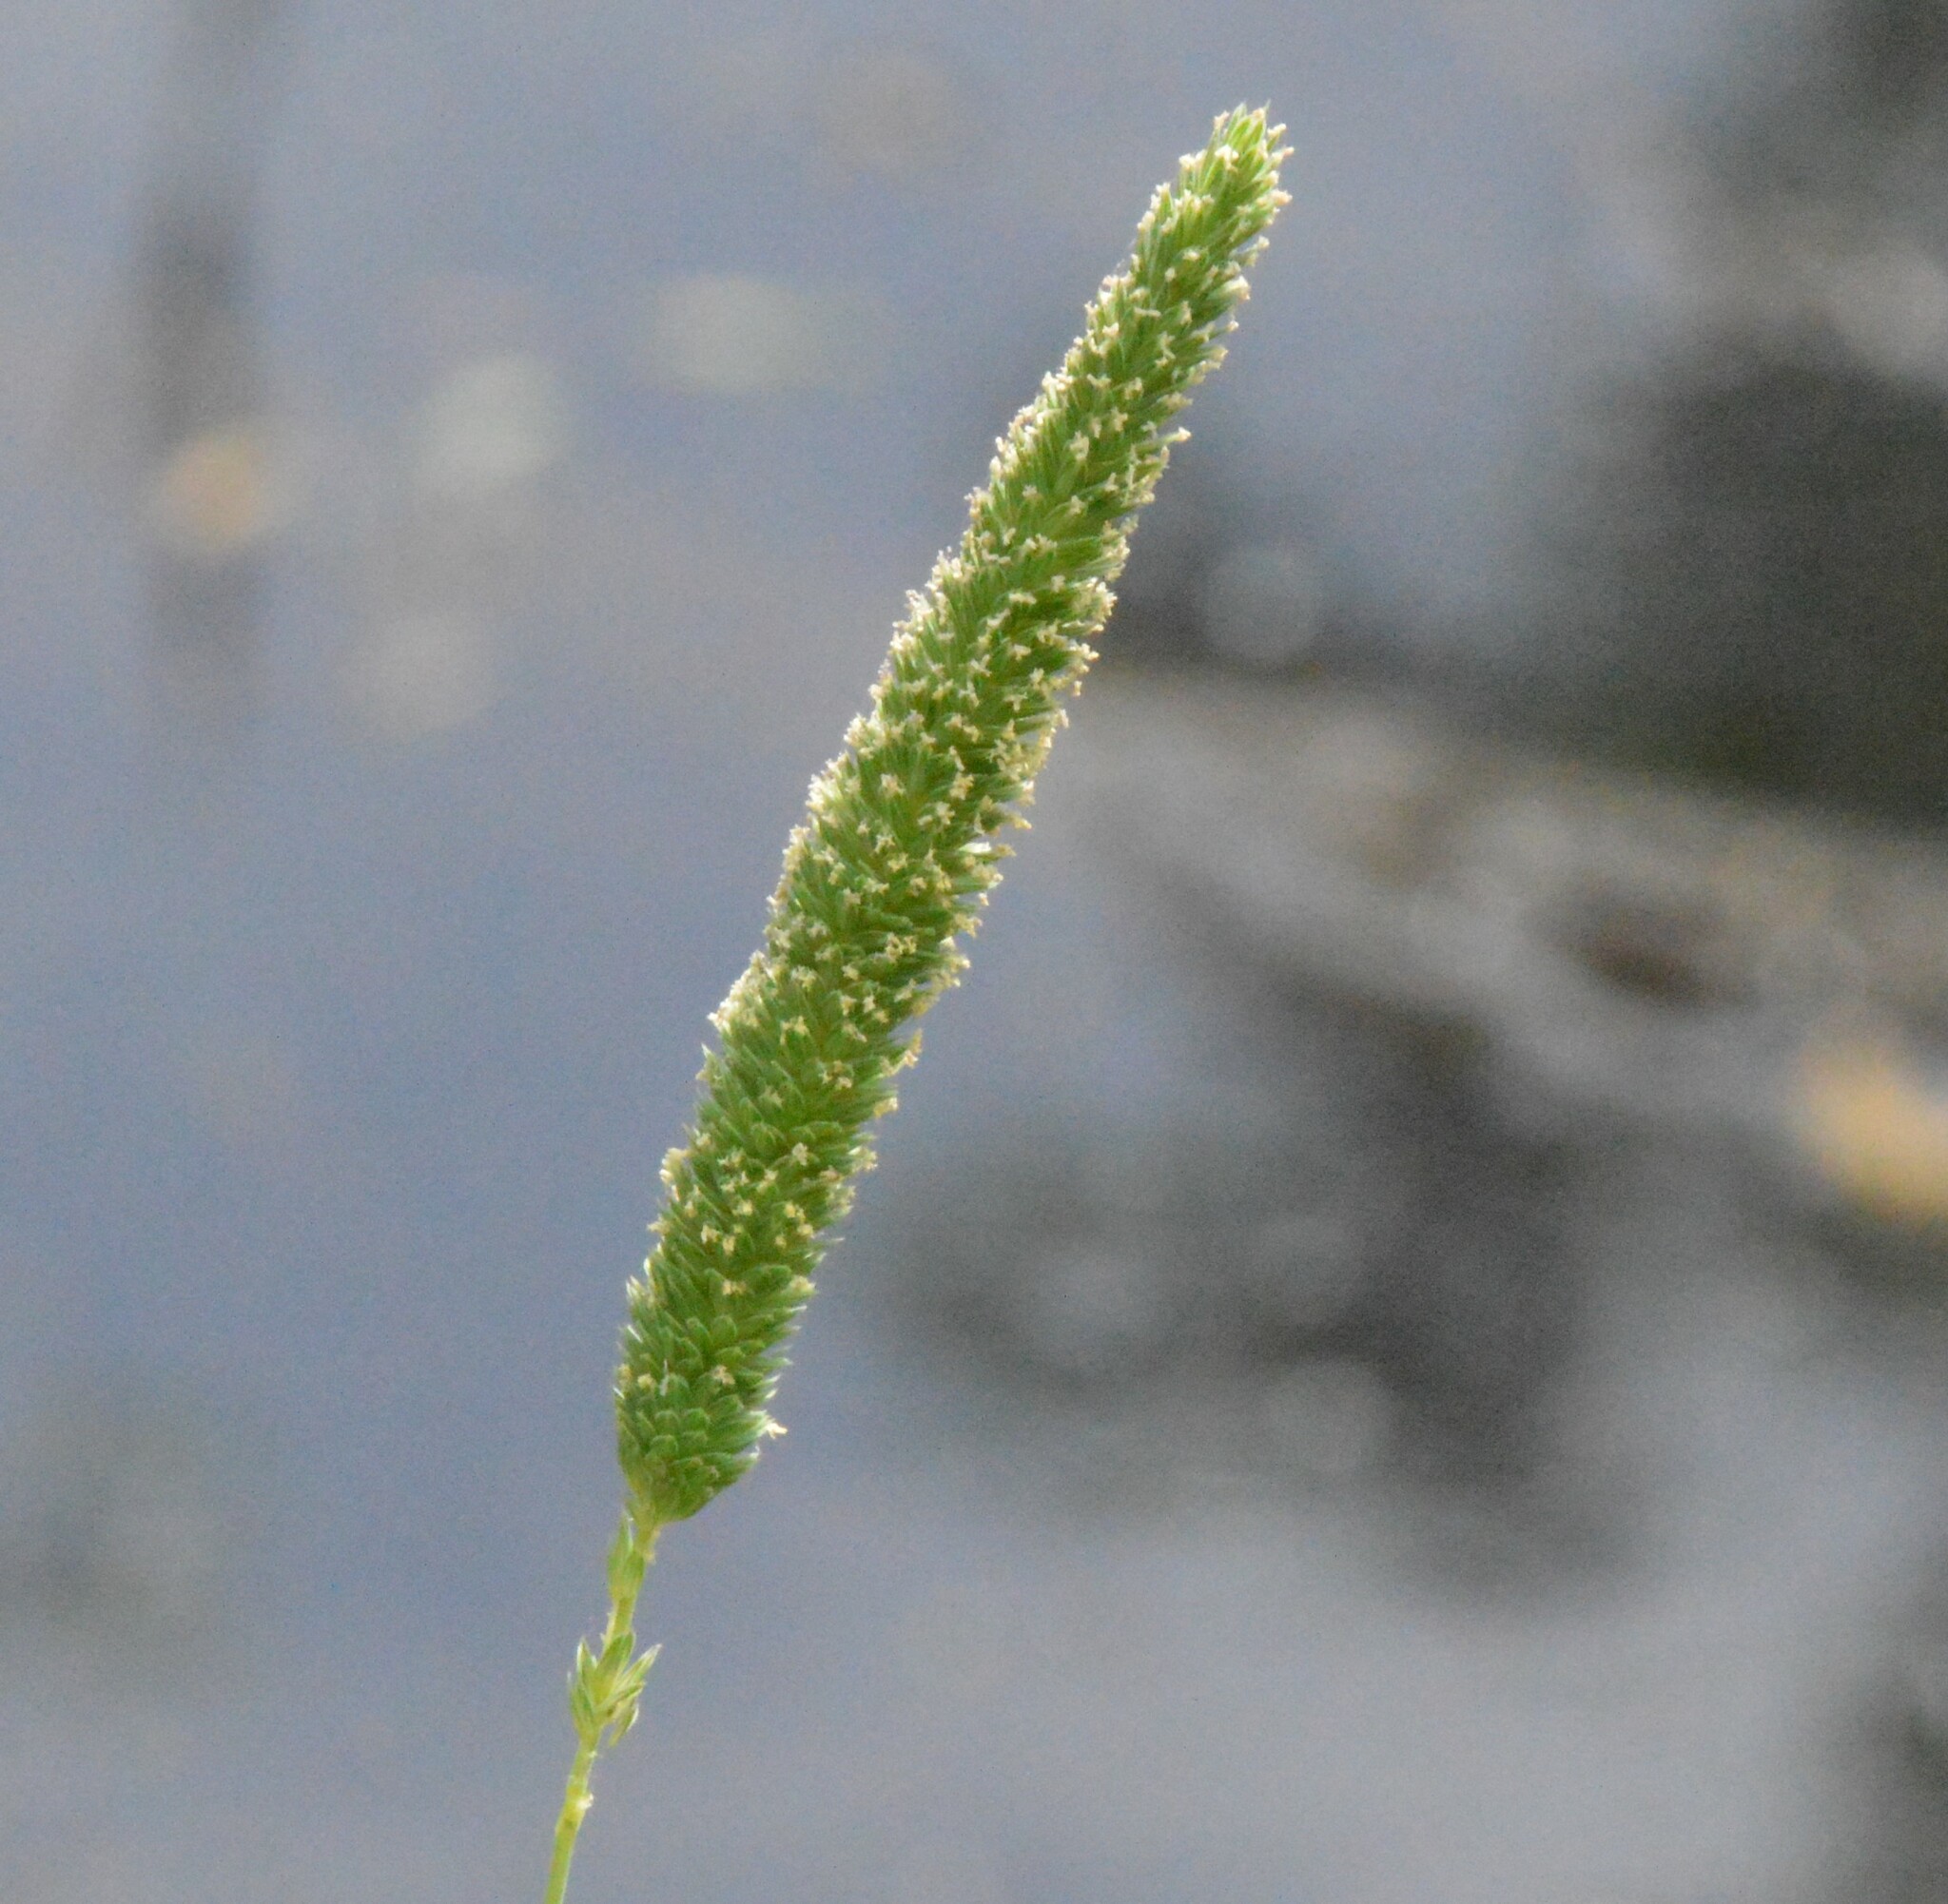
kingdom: Plantae
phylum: Tracheophyta
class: Liliopsida
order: Poales
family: Poaceae
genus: Phalaris
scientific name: Phalaris angusta
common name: Narrow canary grass
